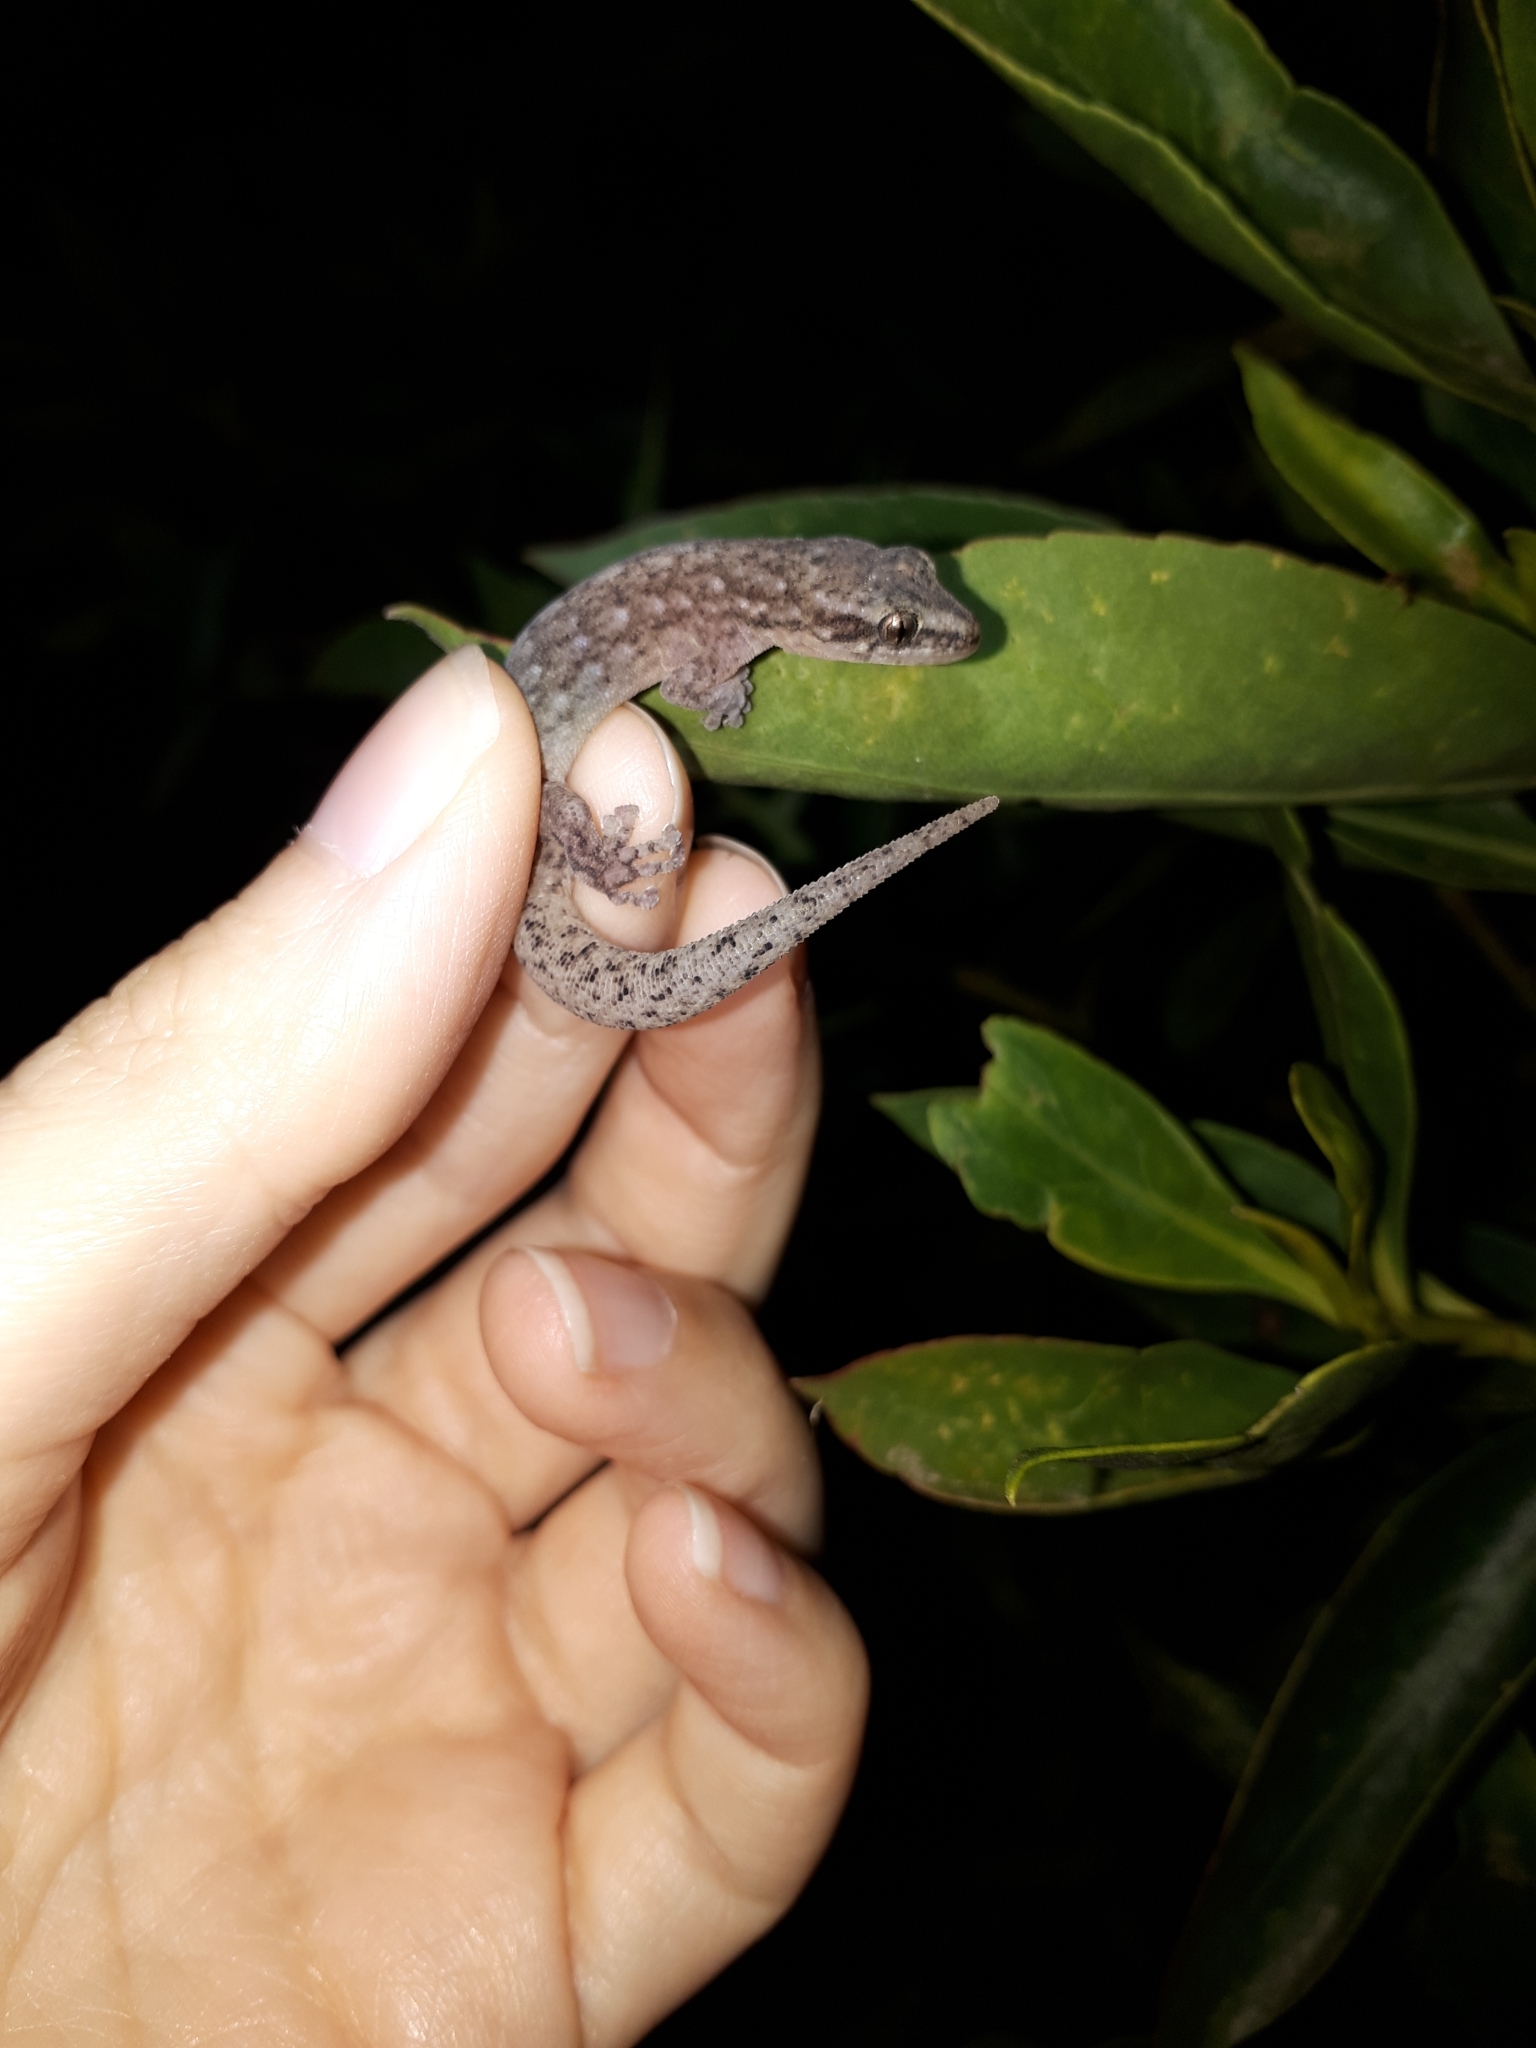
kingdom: Animalia
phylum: Chordata
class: Squamata
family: Gekkonidae
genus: Afrogecko
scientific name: Afrogecko porphyreus
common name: Marbled leaf-toed gecko
